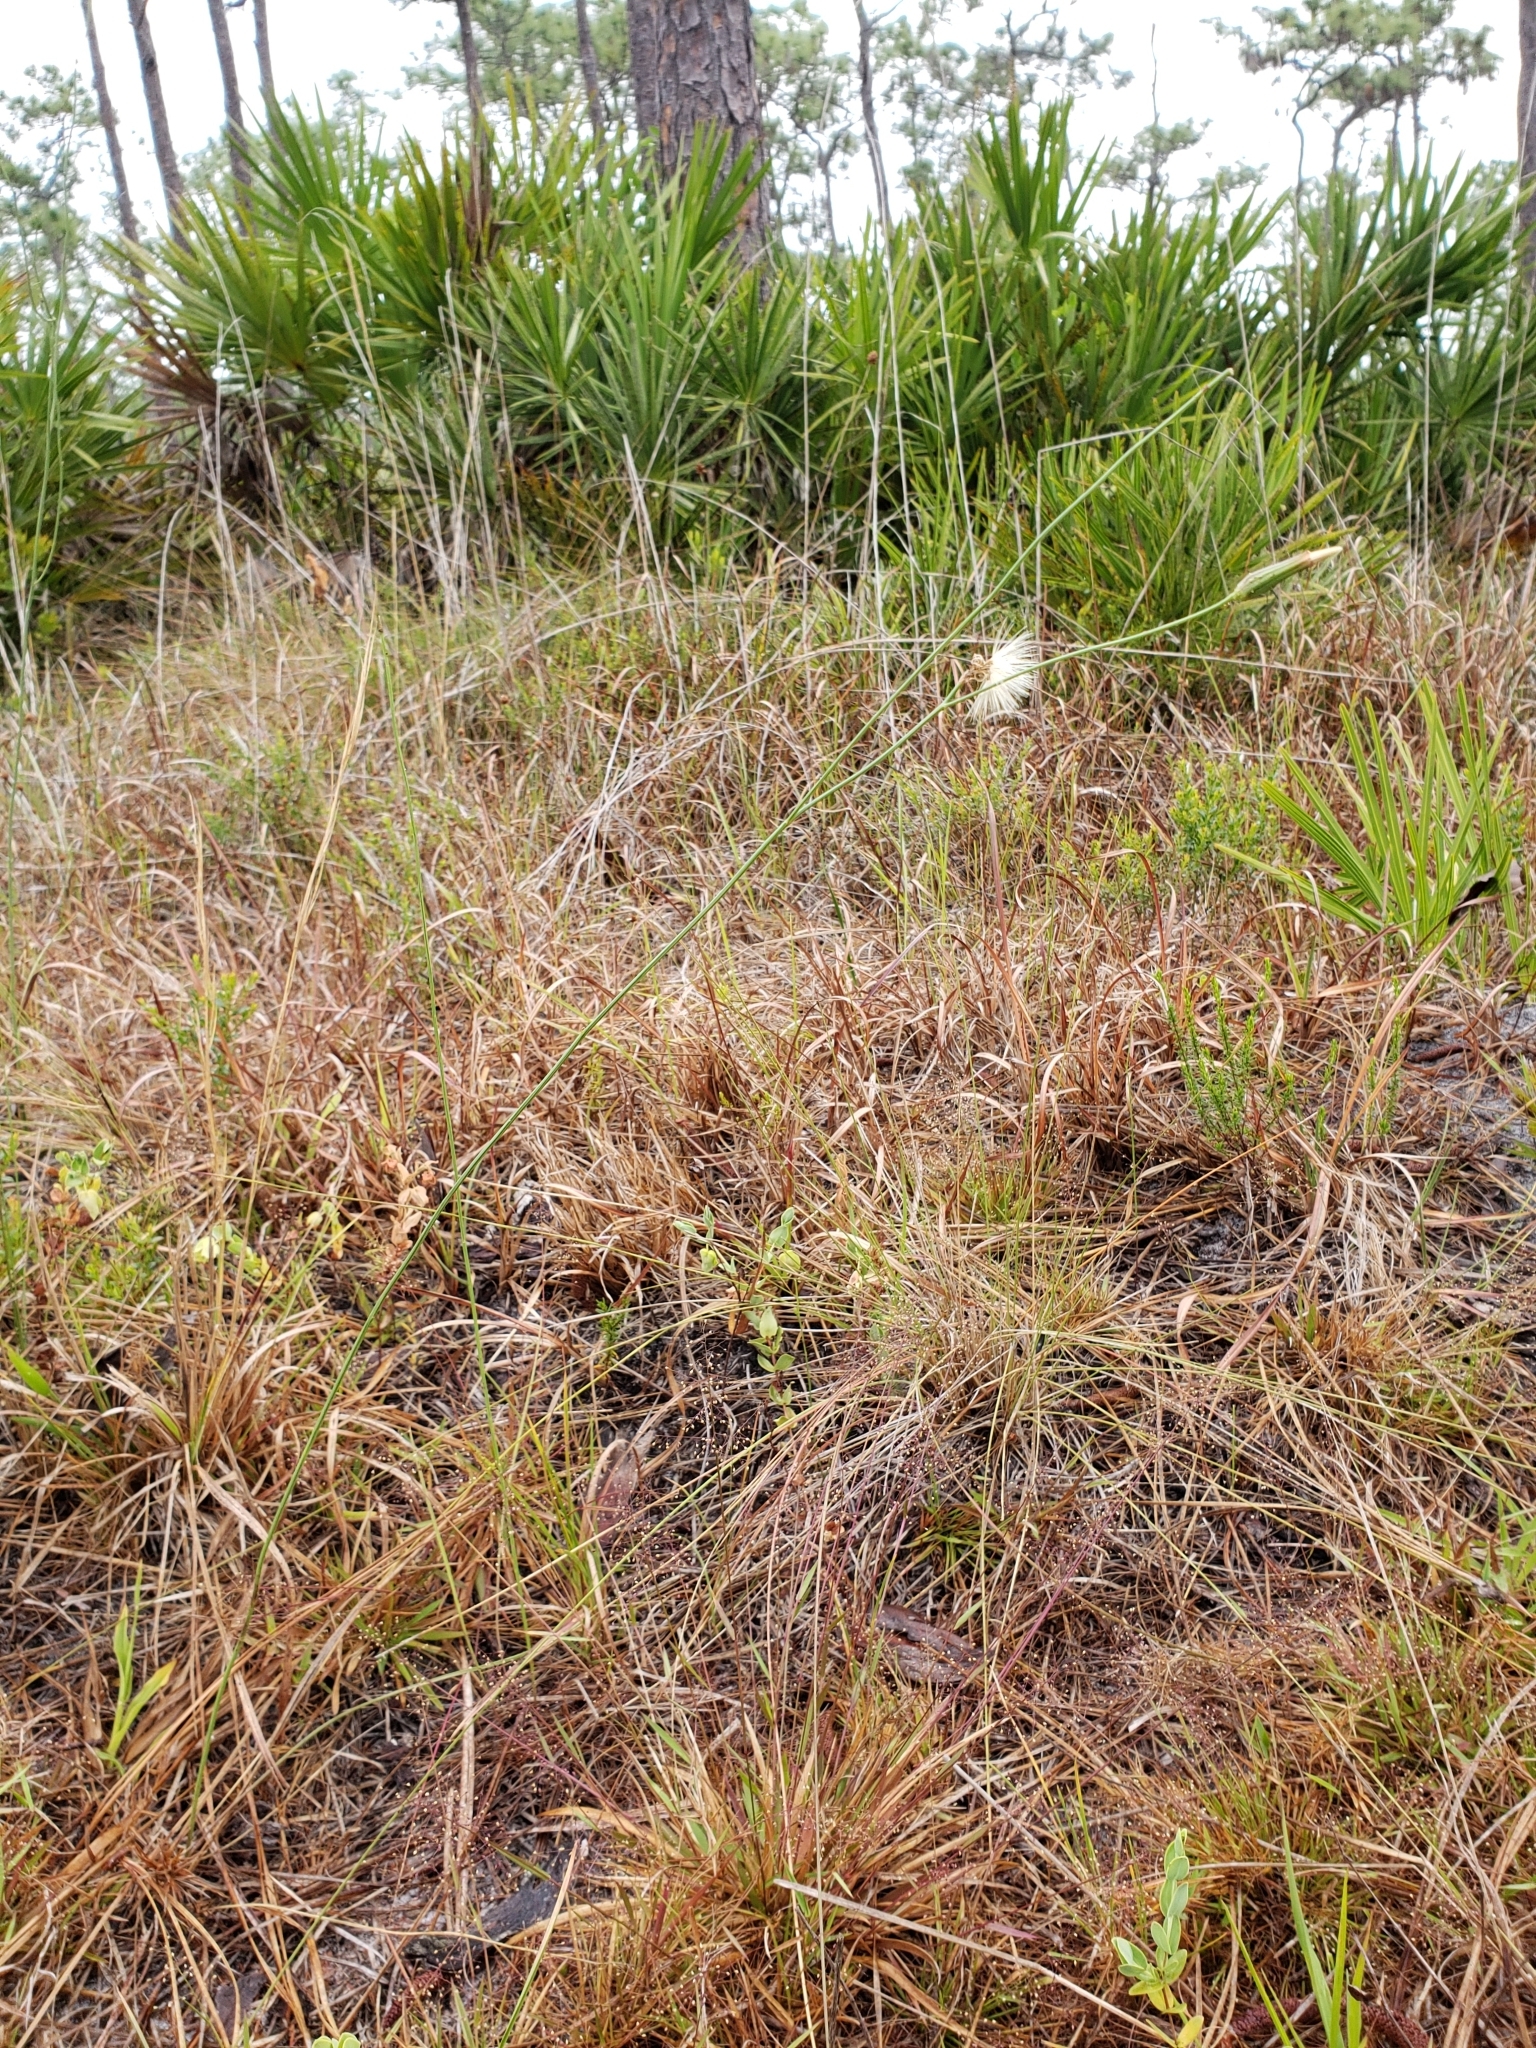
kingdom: Plantae
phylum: Tracheophyta
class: Magnoliopsida
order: Asterales
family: Asteraceae
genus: Lygodesmia
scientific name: Lygodesmia aphylla
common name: Rose-rush
